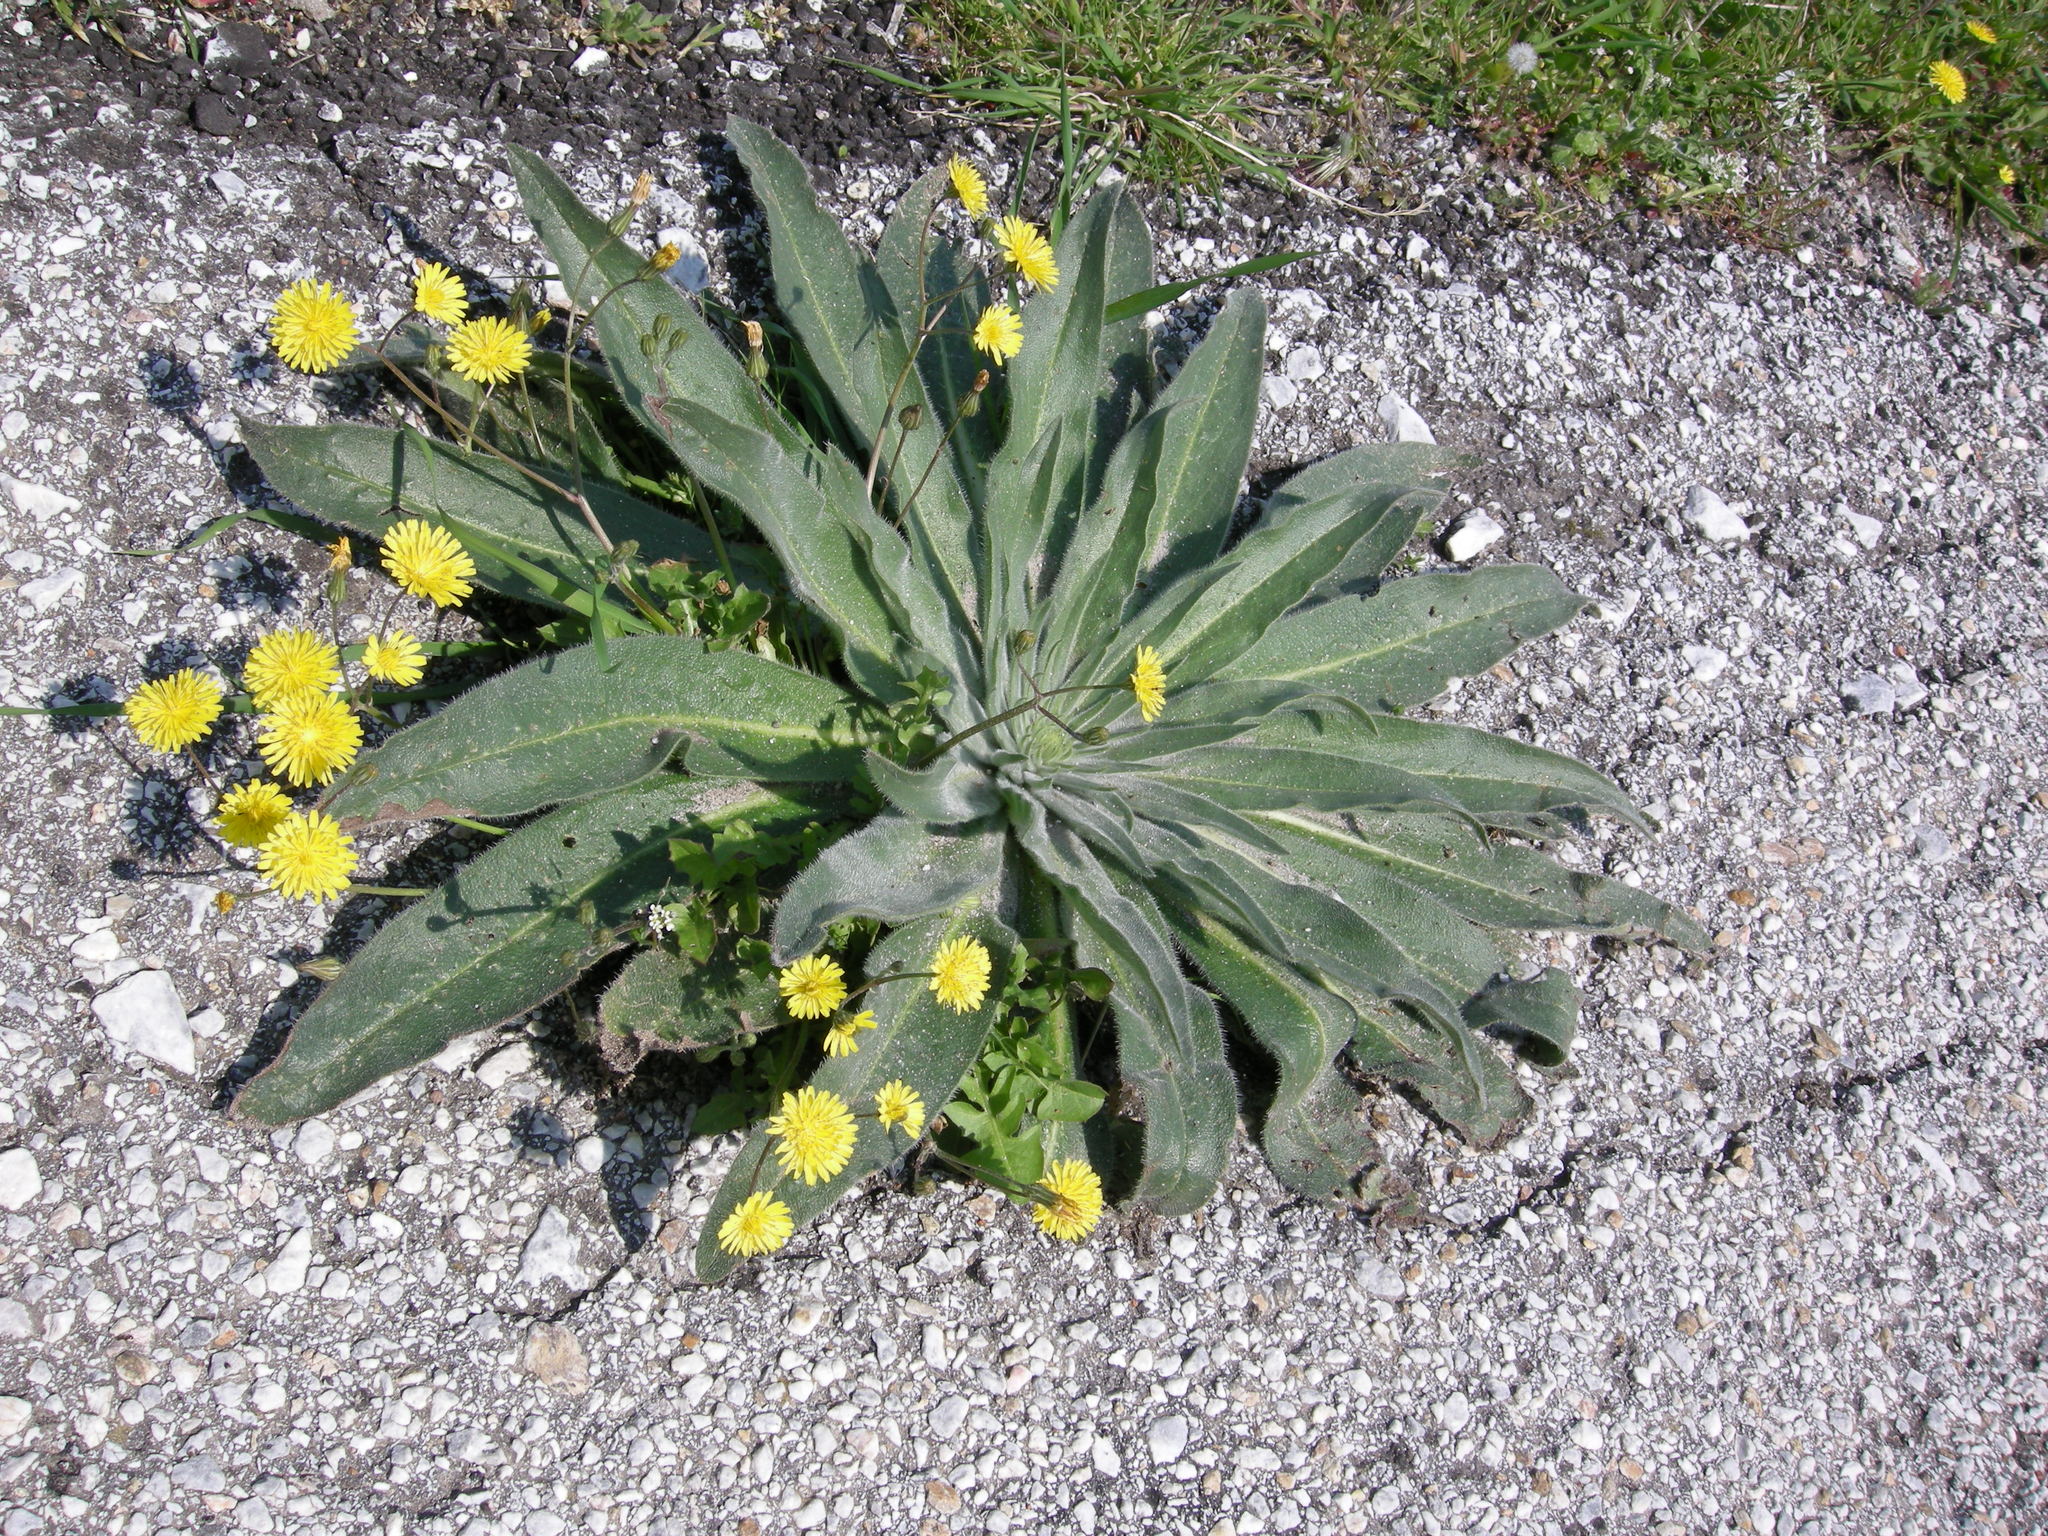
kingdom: Plantae
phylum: Tracheophyta
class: Magnoliopsida
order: Boraginales
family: Boraginaceae
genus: Echium
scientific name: Echium italicum
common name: Italian viper's bugloss
